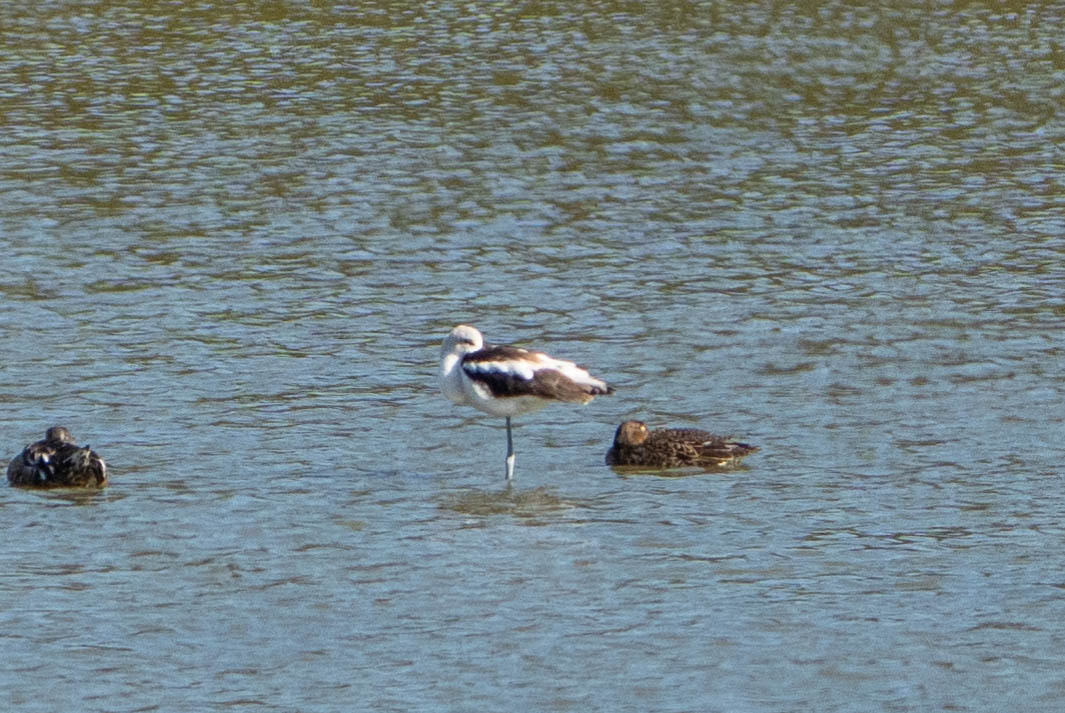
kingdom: Animalia
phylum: Chordata
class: Aves
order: Charadriiformes
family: Recurvirostridae
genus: Recurvirostra
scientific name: Recurvirostra americana
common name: American avocet
